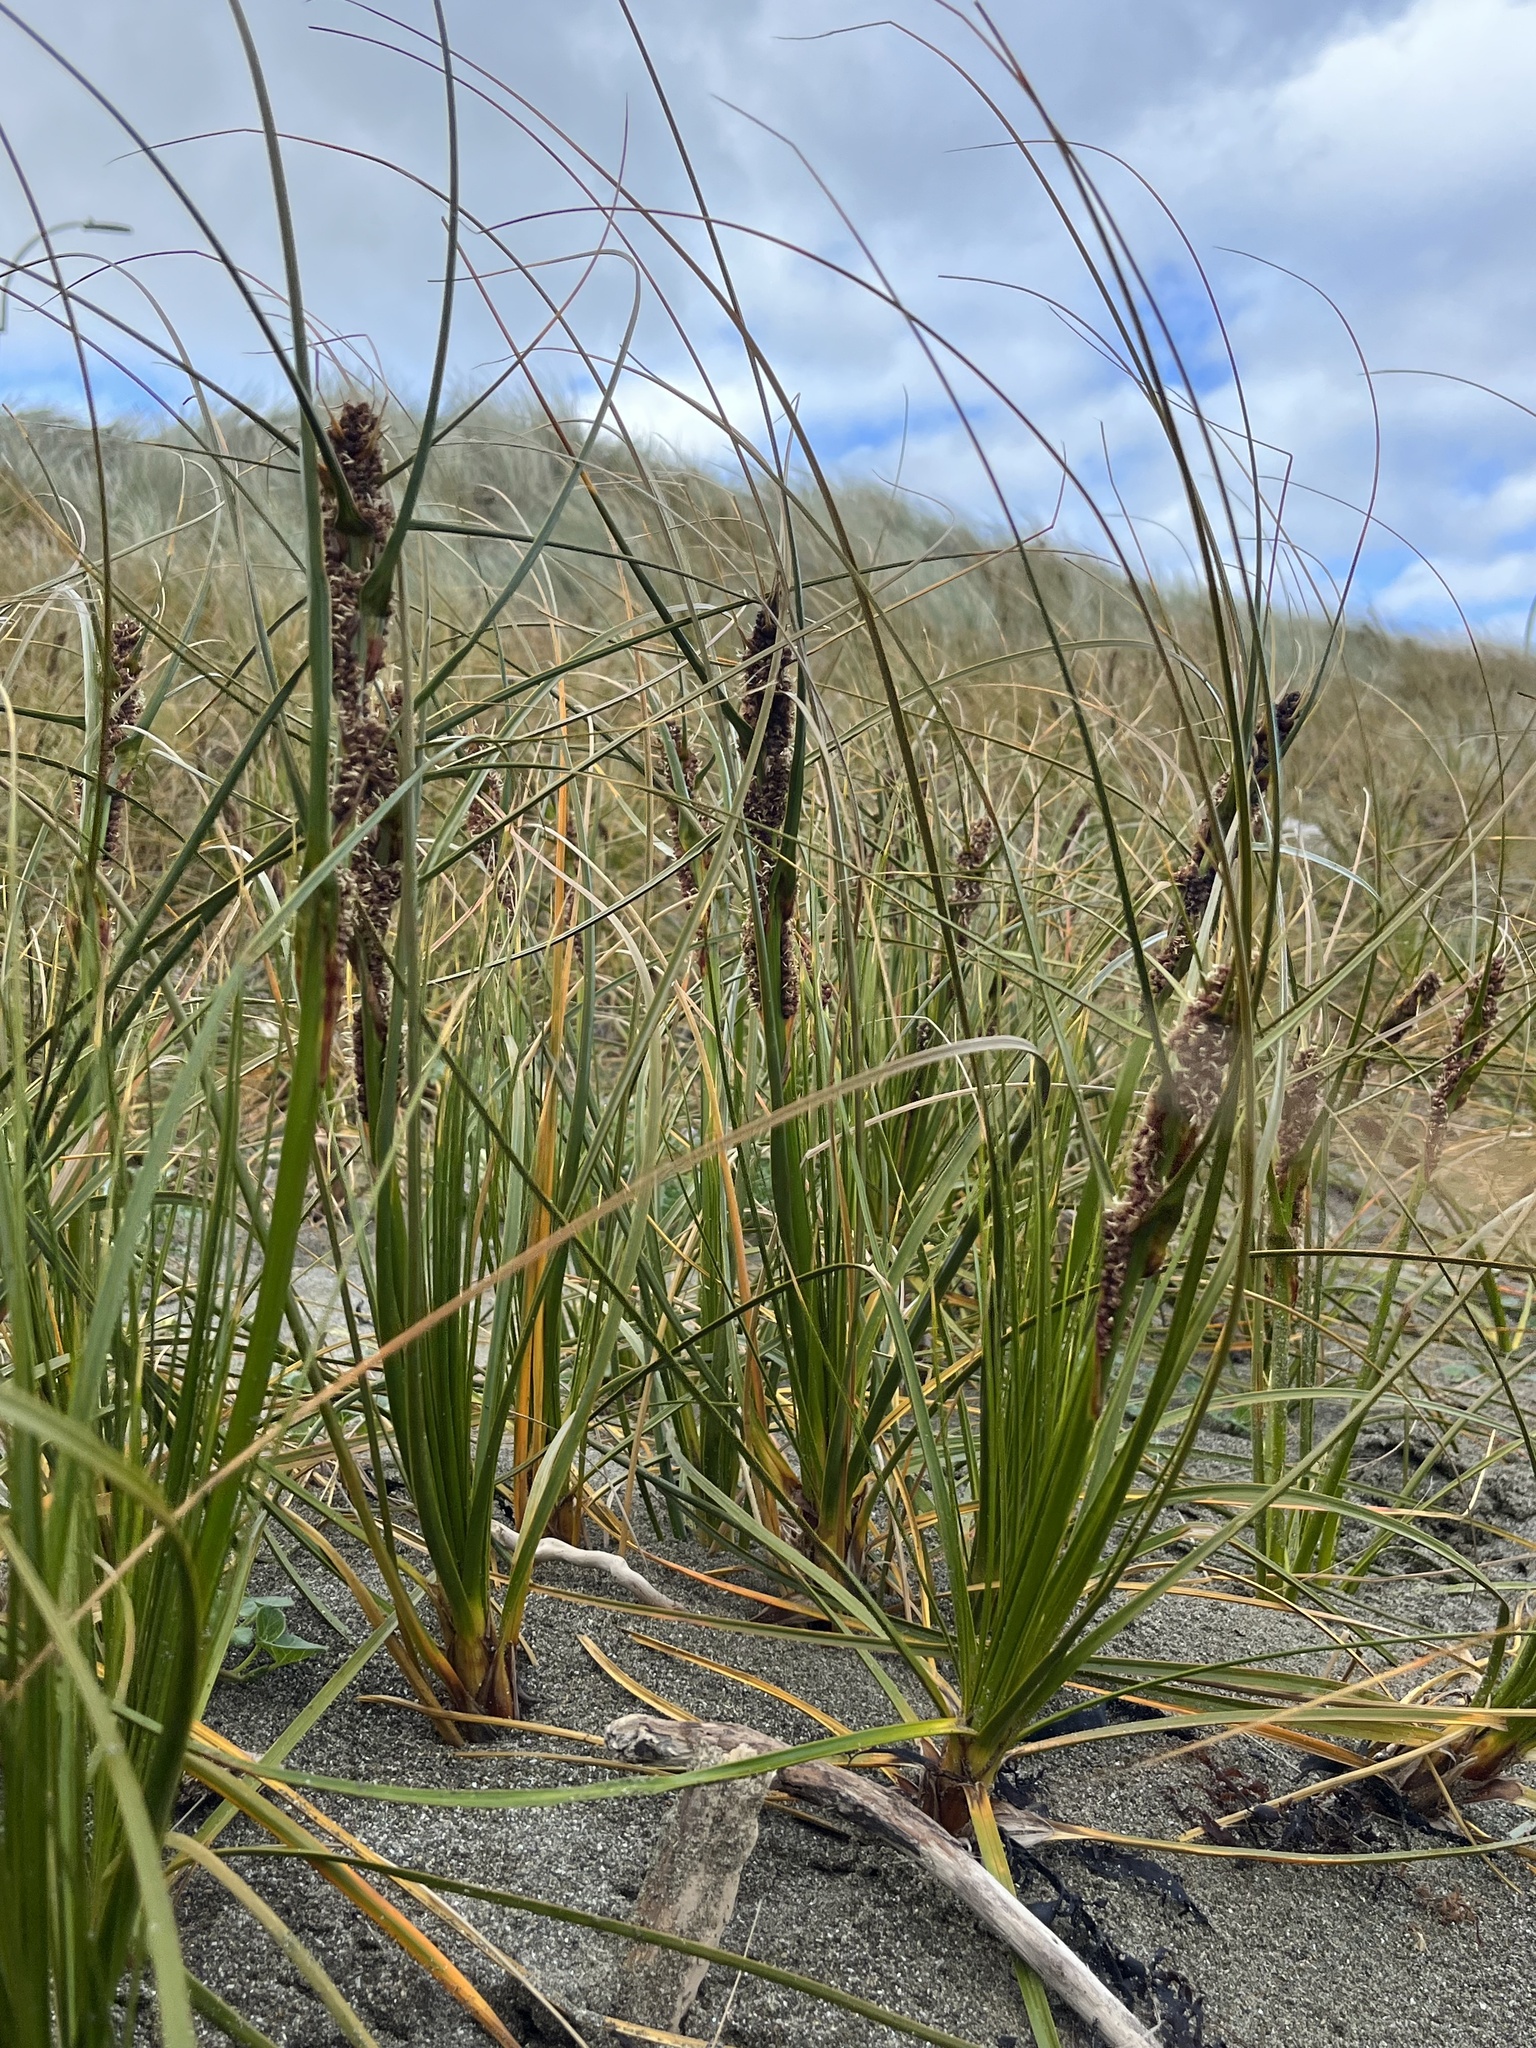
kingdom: Plantae
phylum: Tracheophyta
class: Liliopsida
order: Poales
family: Cyperaceae
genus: Ficinia
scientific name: Ficinia spiralis
